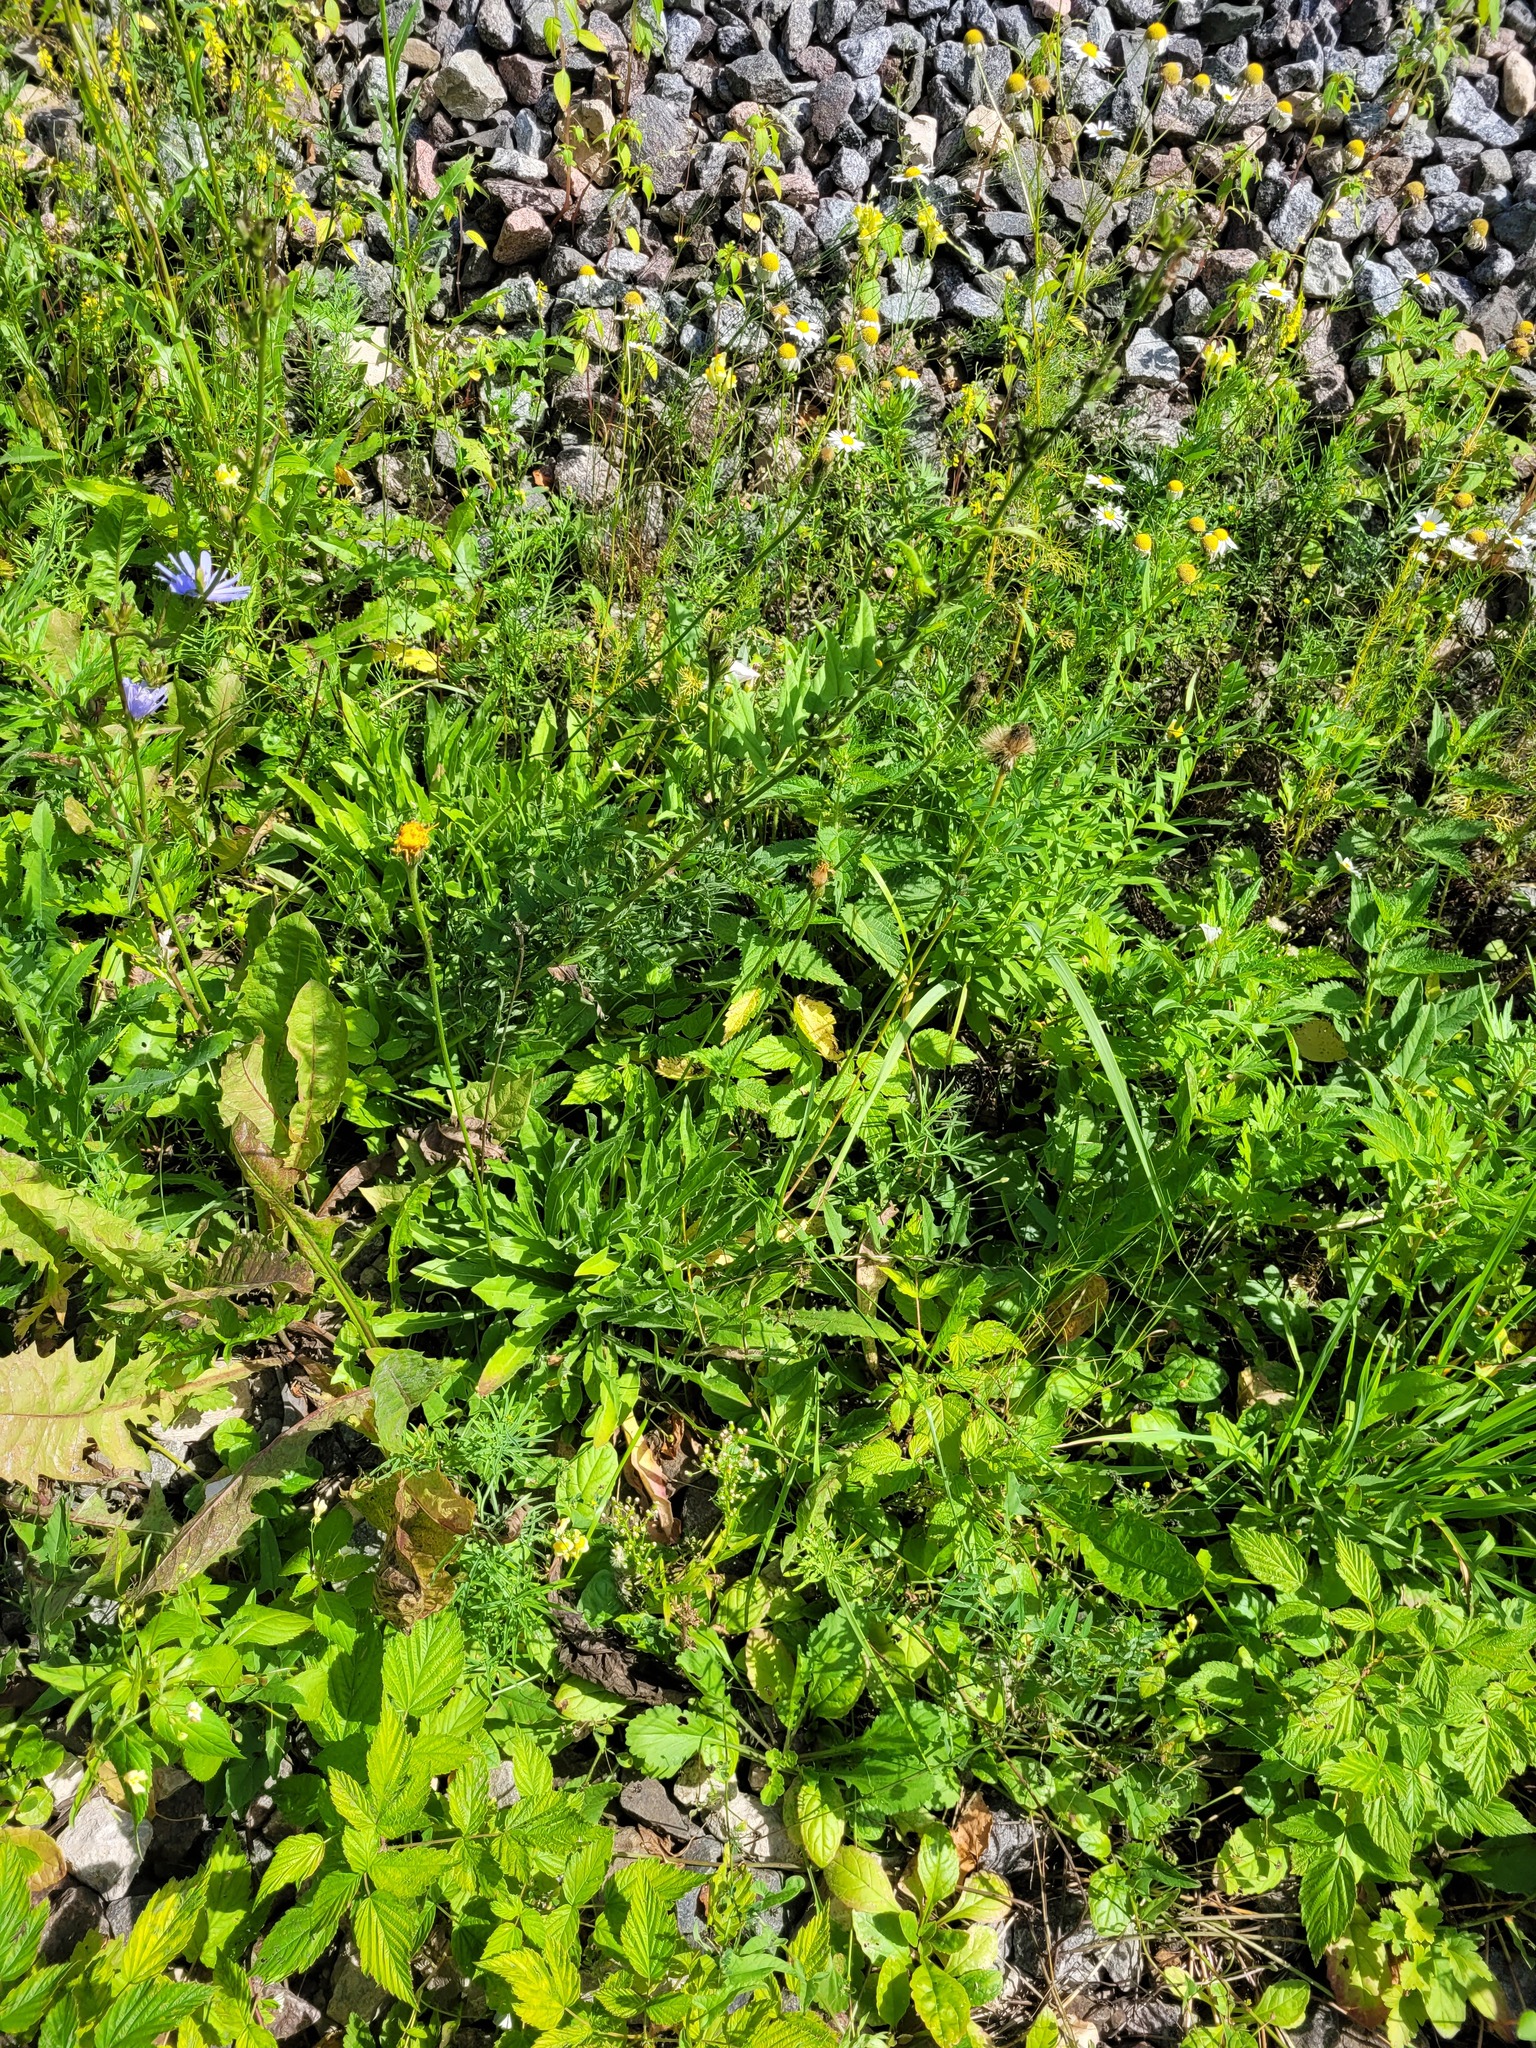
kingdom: Plantae
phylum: Tracheophyta
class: Magnoliopsida
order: Asterales
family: Asteraceae
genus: Leontodon
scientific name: Leontodon hispidus
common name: Rough hawkbit
